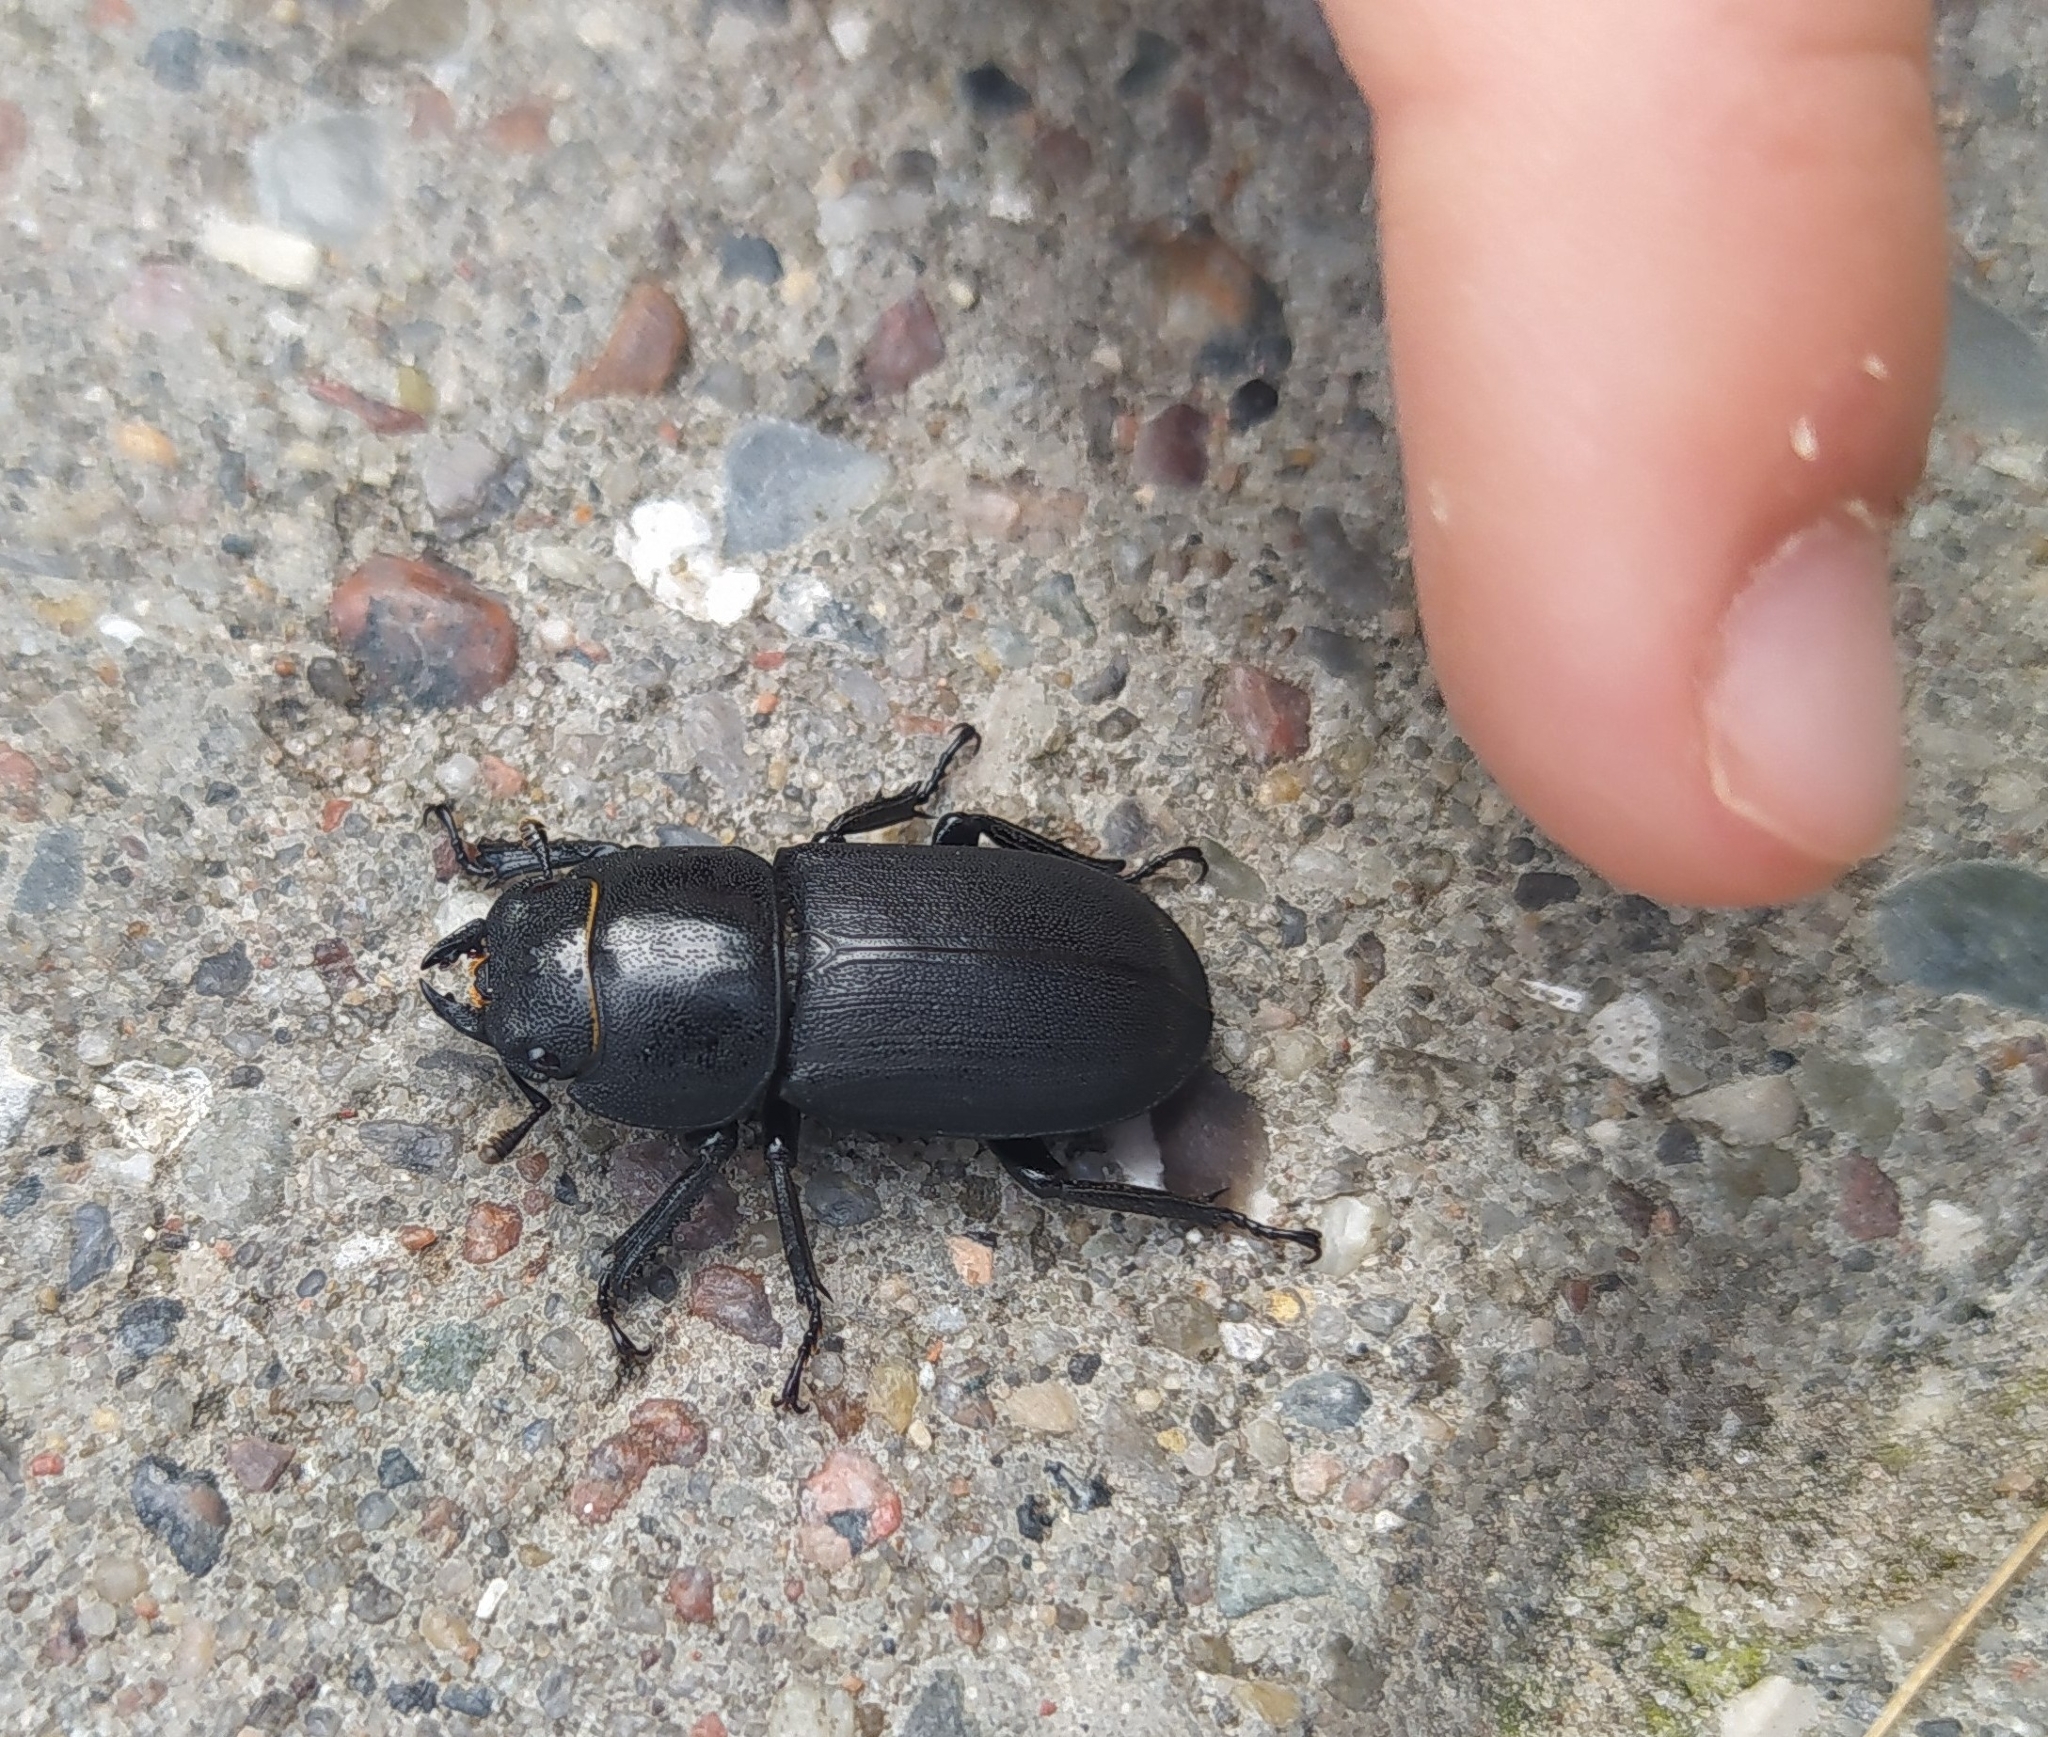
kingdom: Animalia
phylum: Arthropoda
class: Insecta
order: Coleoptera
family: Lucanidae
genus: Dorcus
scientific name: Dorcus parallelipipedus
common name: Lesser stag beetle
